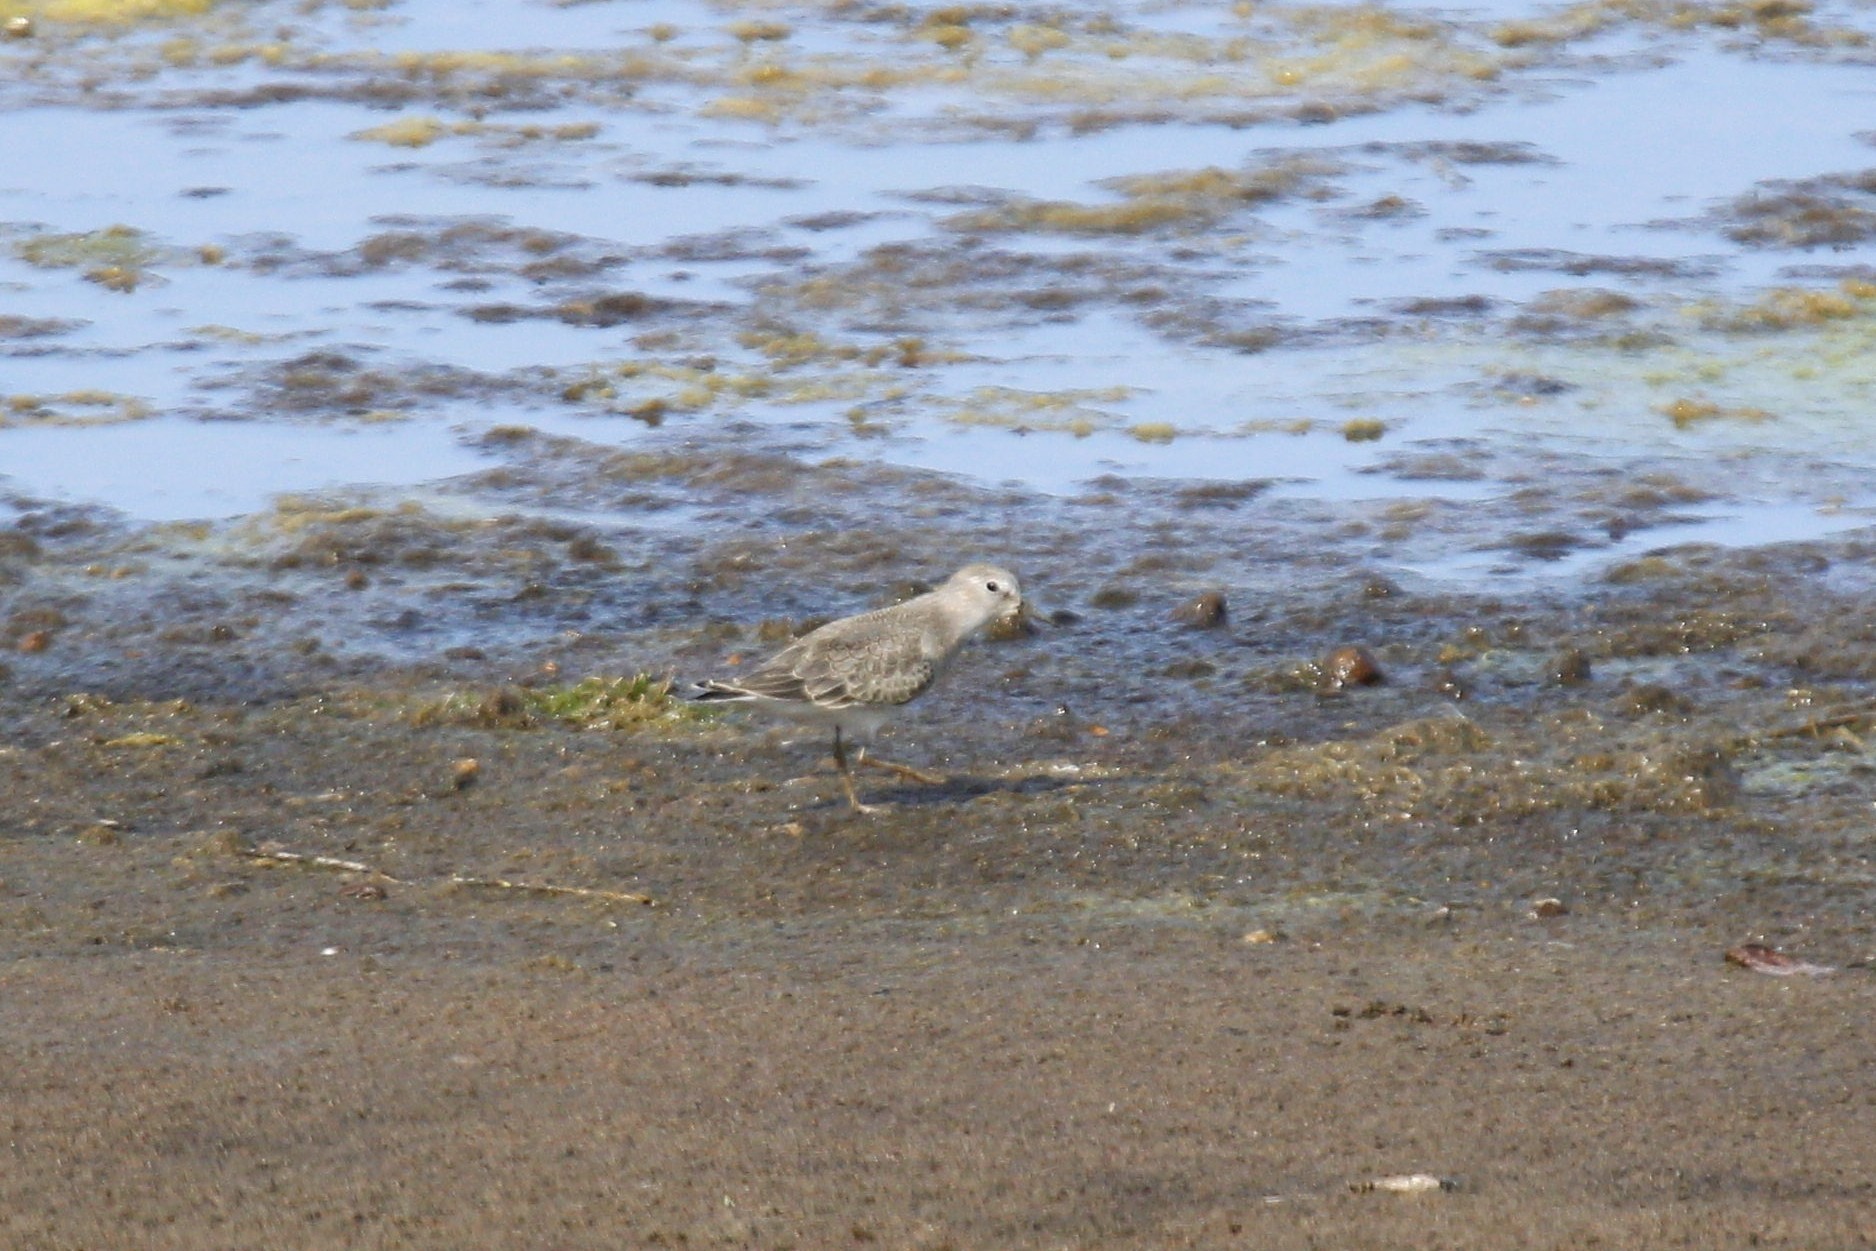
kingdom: Animalia
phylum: Chordata
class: Aves
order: Charadriiformes
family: Scolopacidae
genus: Calidris
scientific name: Calidris temminckii
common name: Temminck's stint
